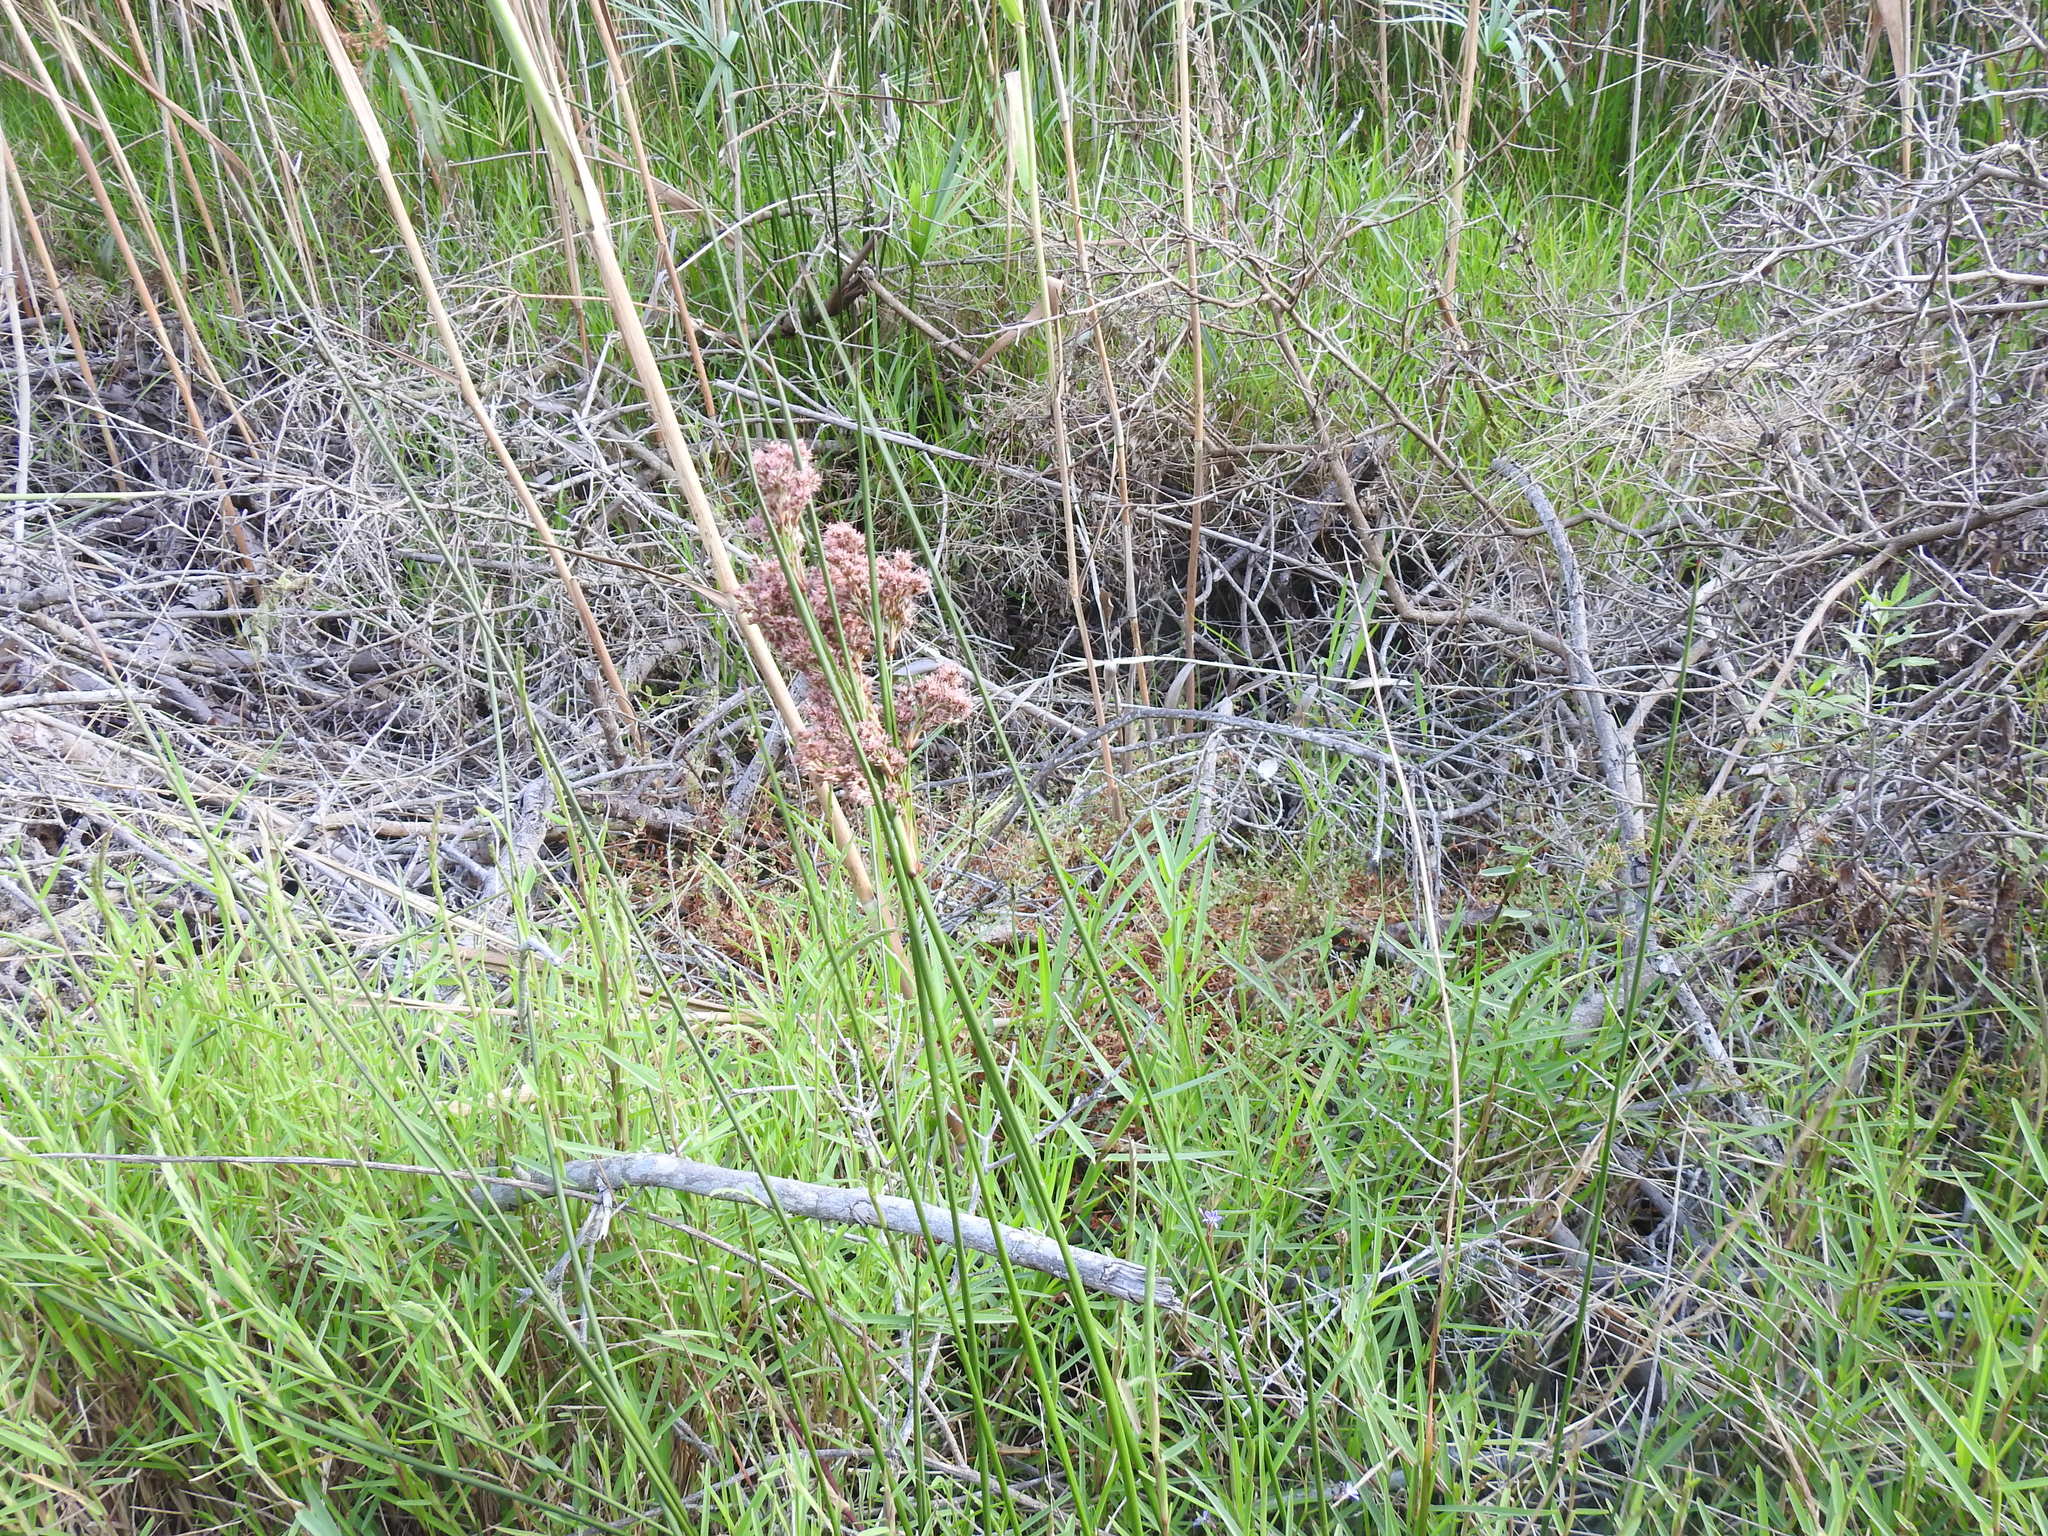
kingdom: Plantae
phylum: Tracheophyta
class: Liliopsida
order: Poales
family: Cyperaceae
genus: Cladium
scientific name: Cladium mariscus
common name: Great fen-sedge
